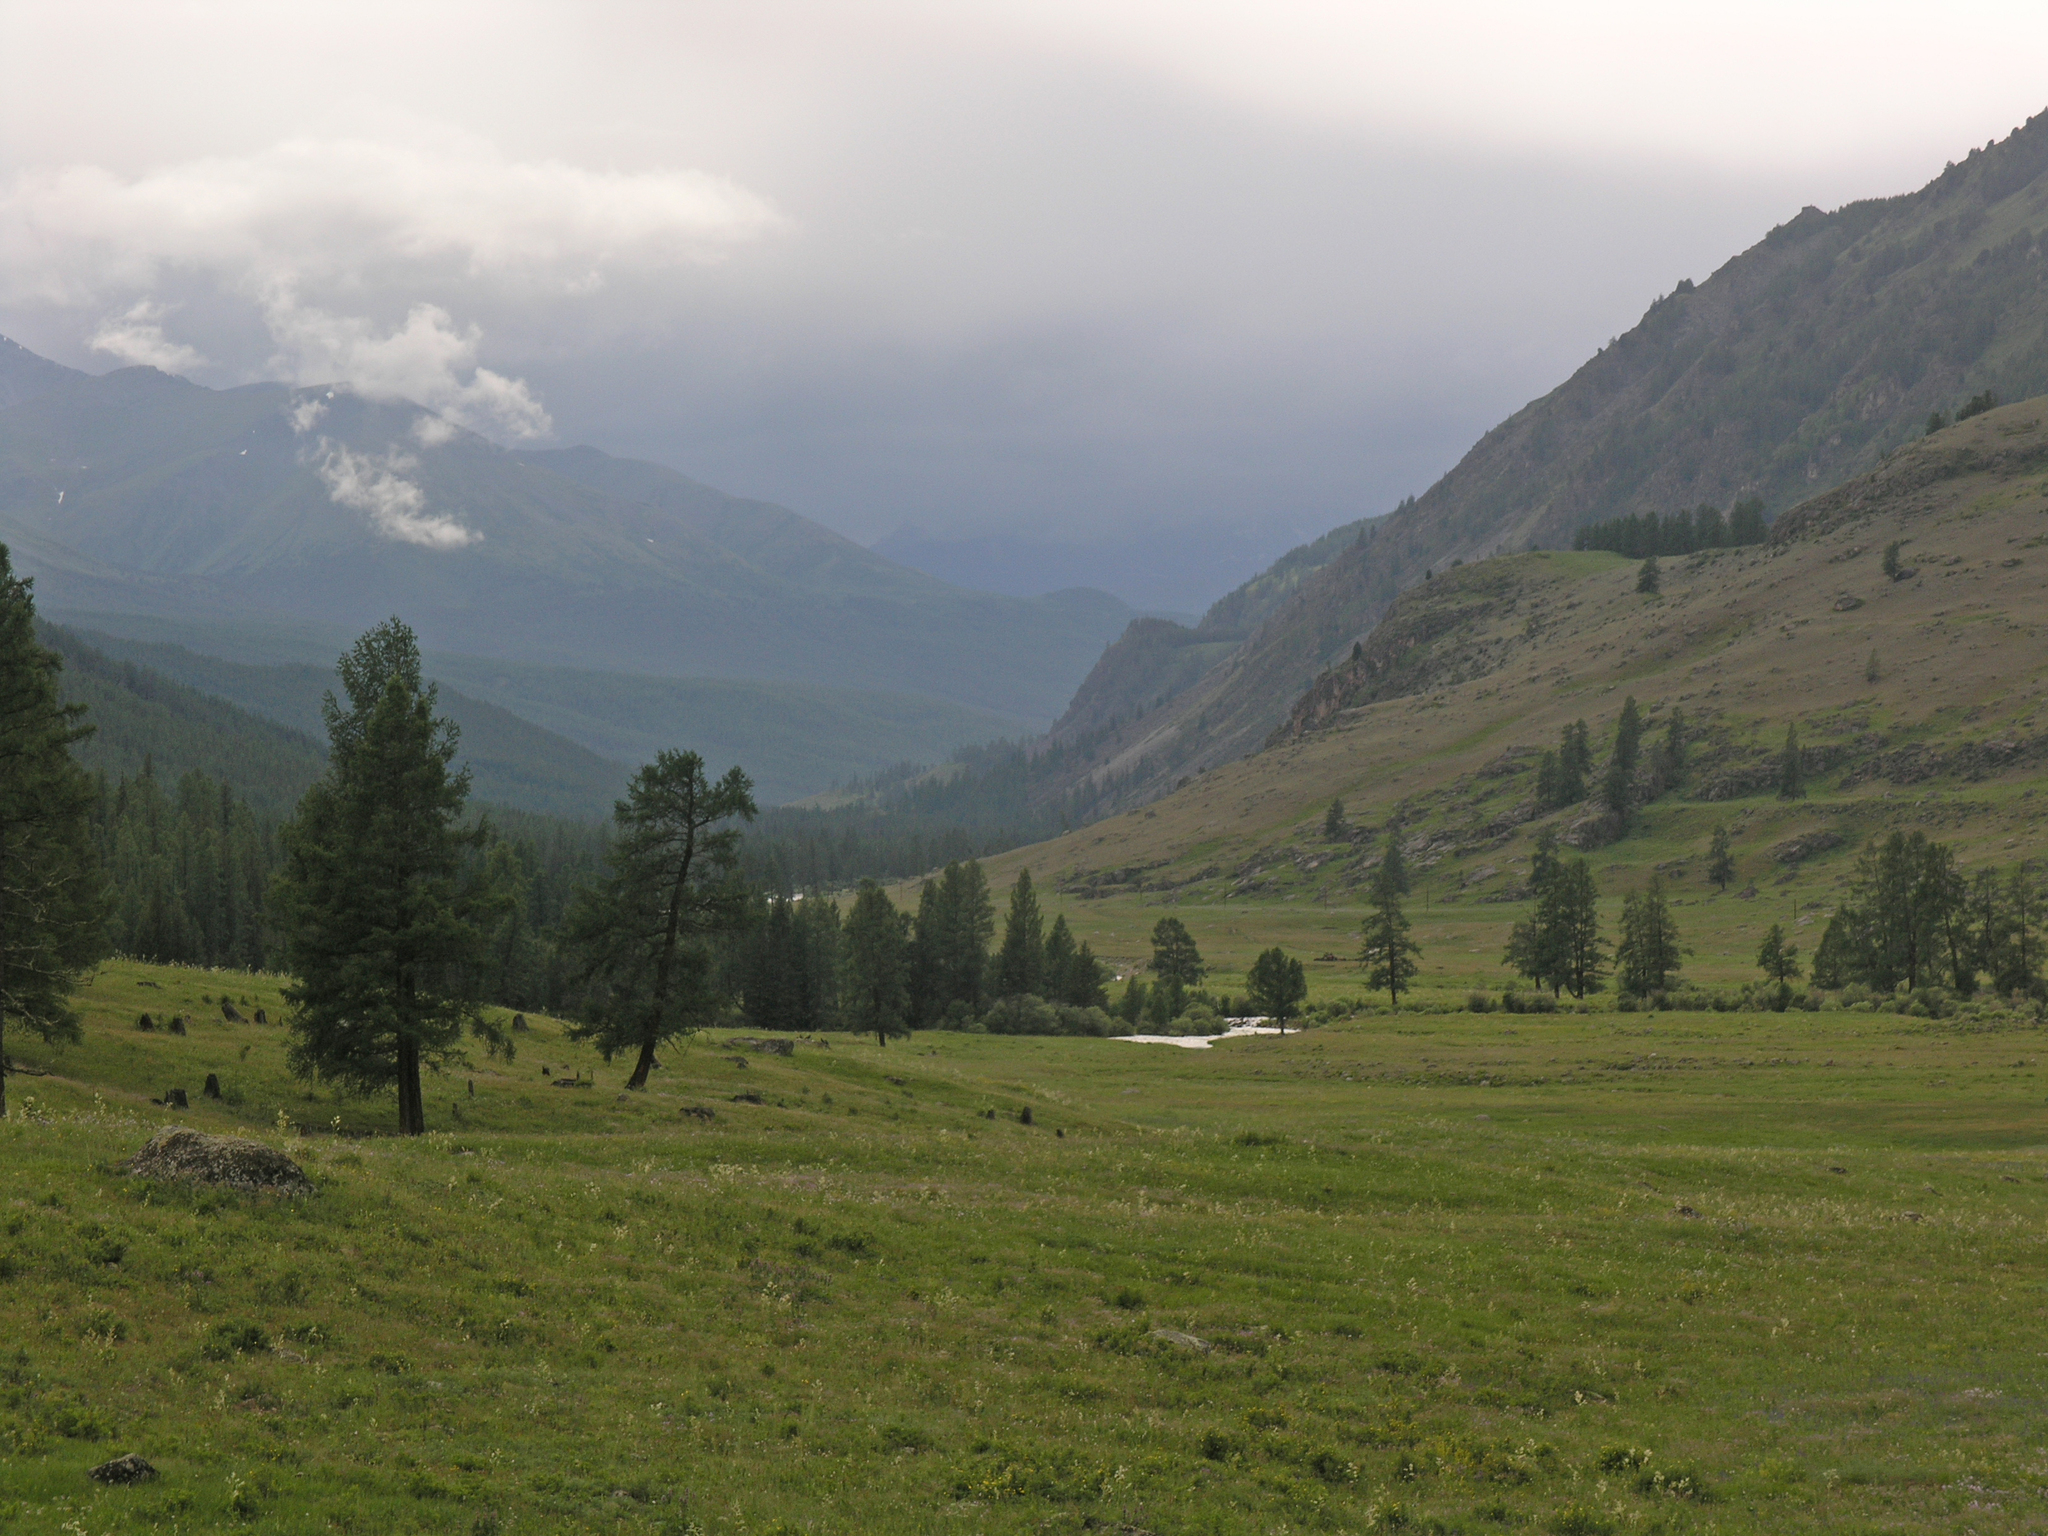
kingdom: Plantae
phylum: Tracheophyta
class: Pinopsida
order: Pinales
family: Pinaceae
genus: Larix
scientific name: Larix sibirica
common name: Siberian larch
